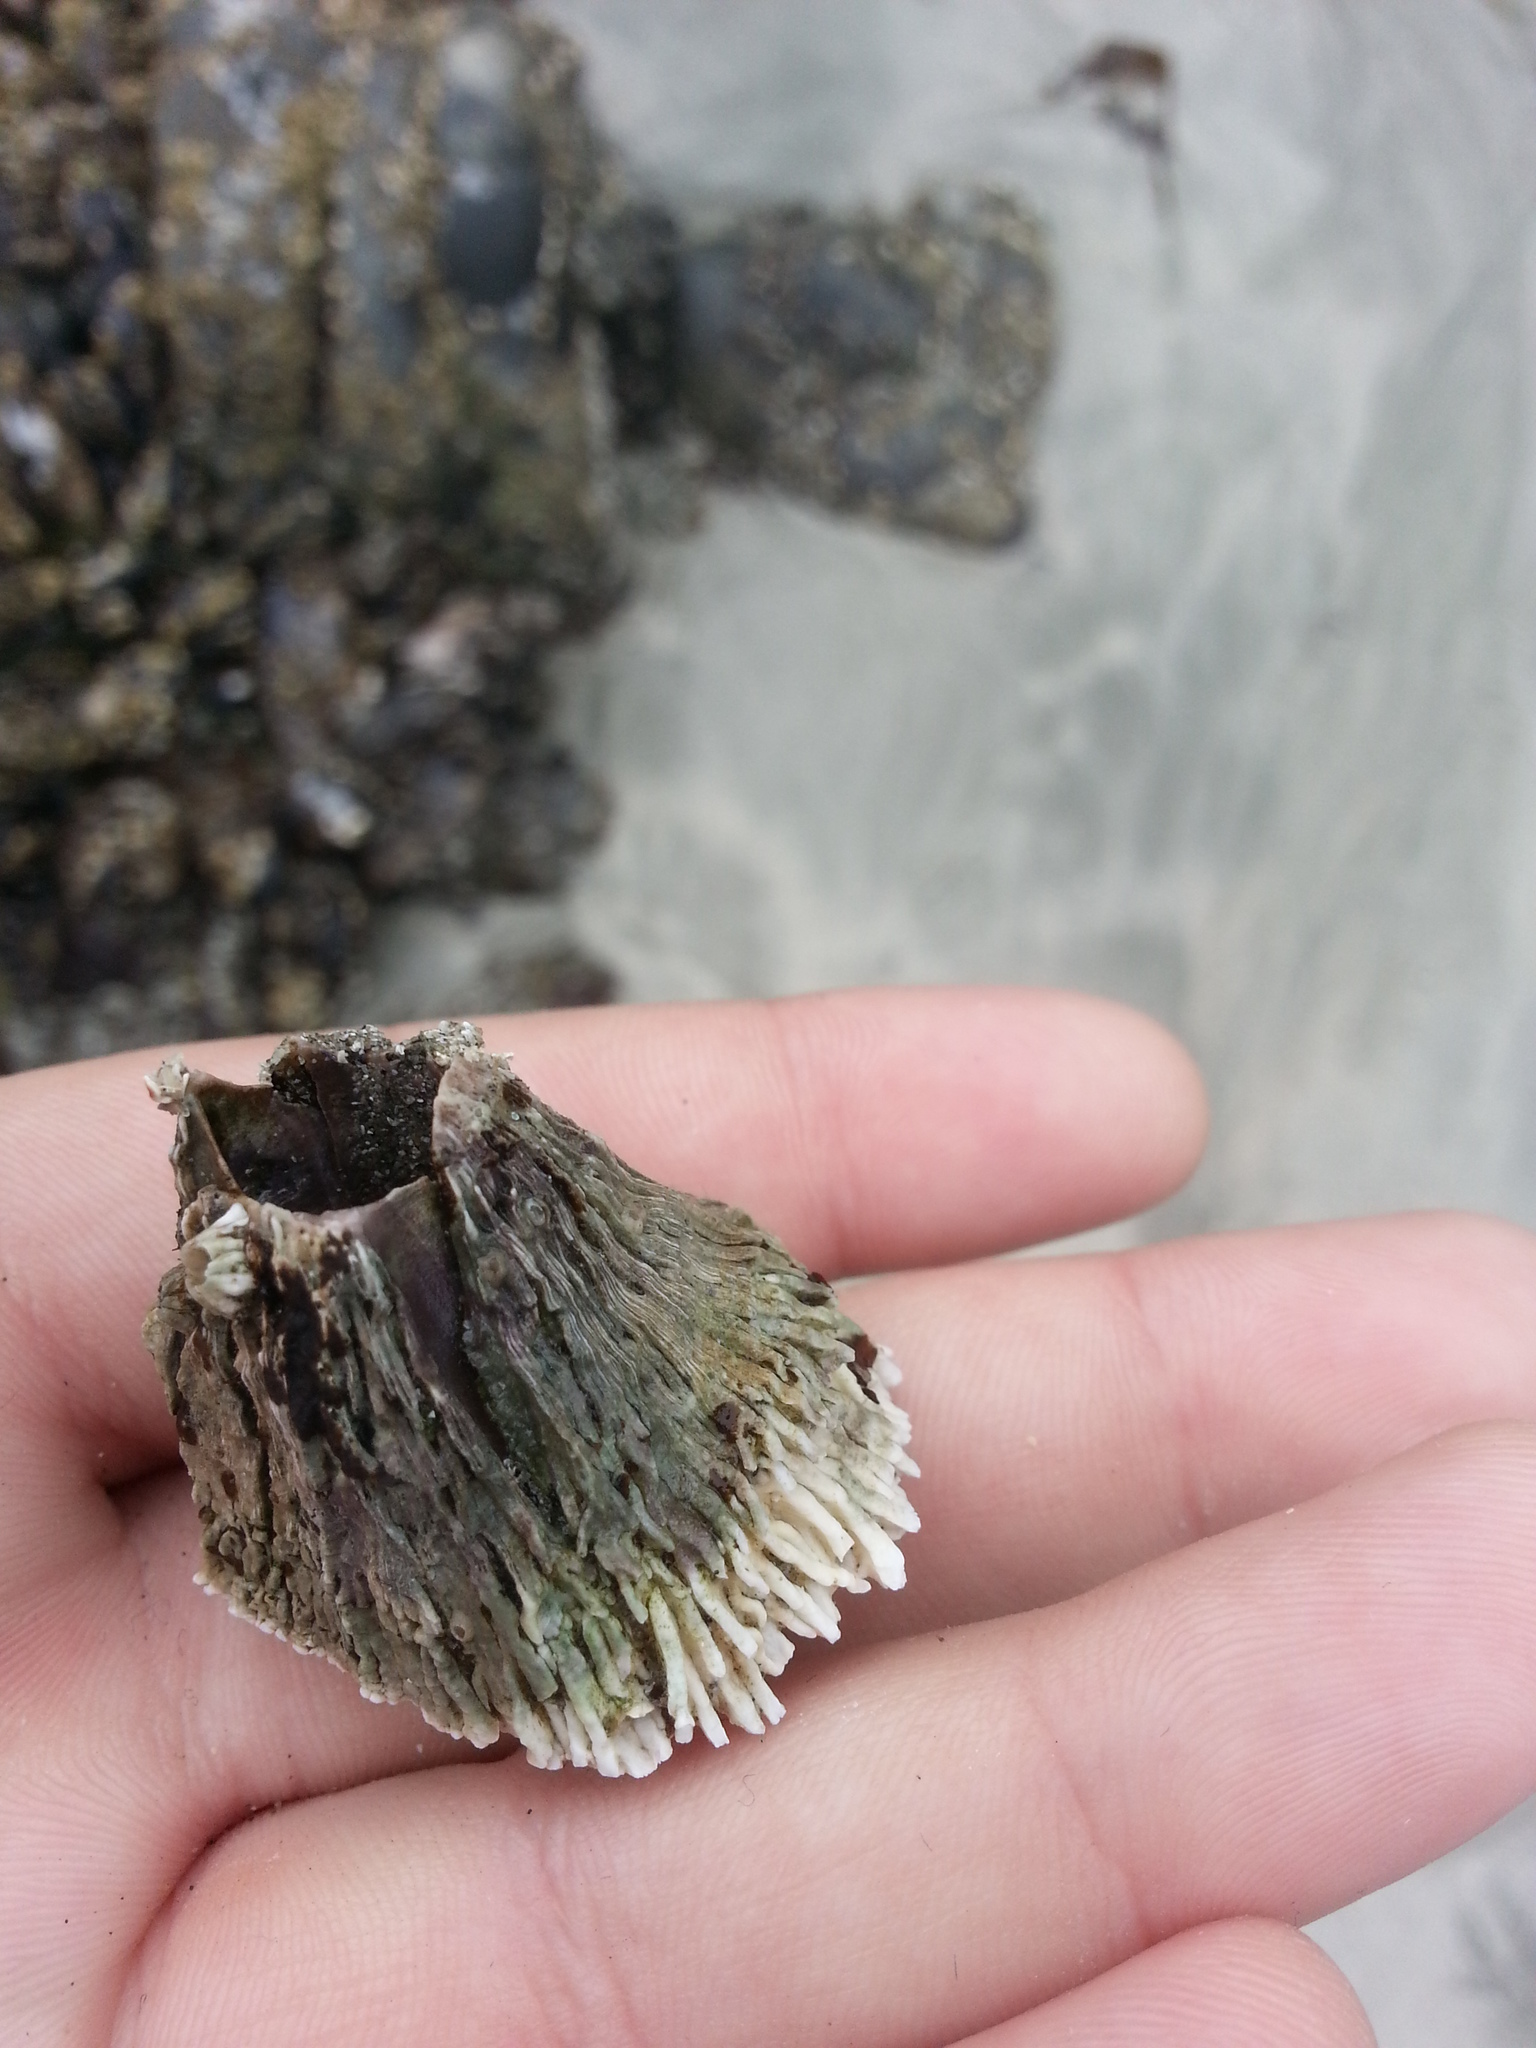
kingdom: Animalia
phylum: Arthropoda
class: Maxillopoda
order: Sessilia
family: Archaeobalanidae
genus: Semibalanus
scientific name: Semibalanus cariosus
